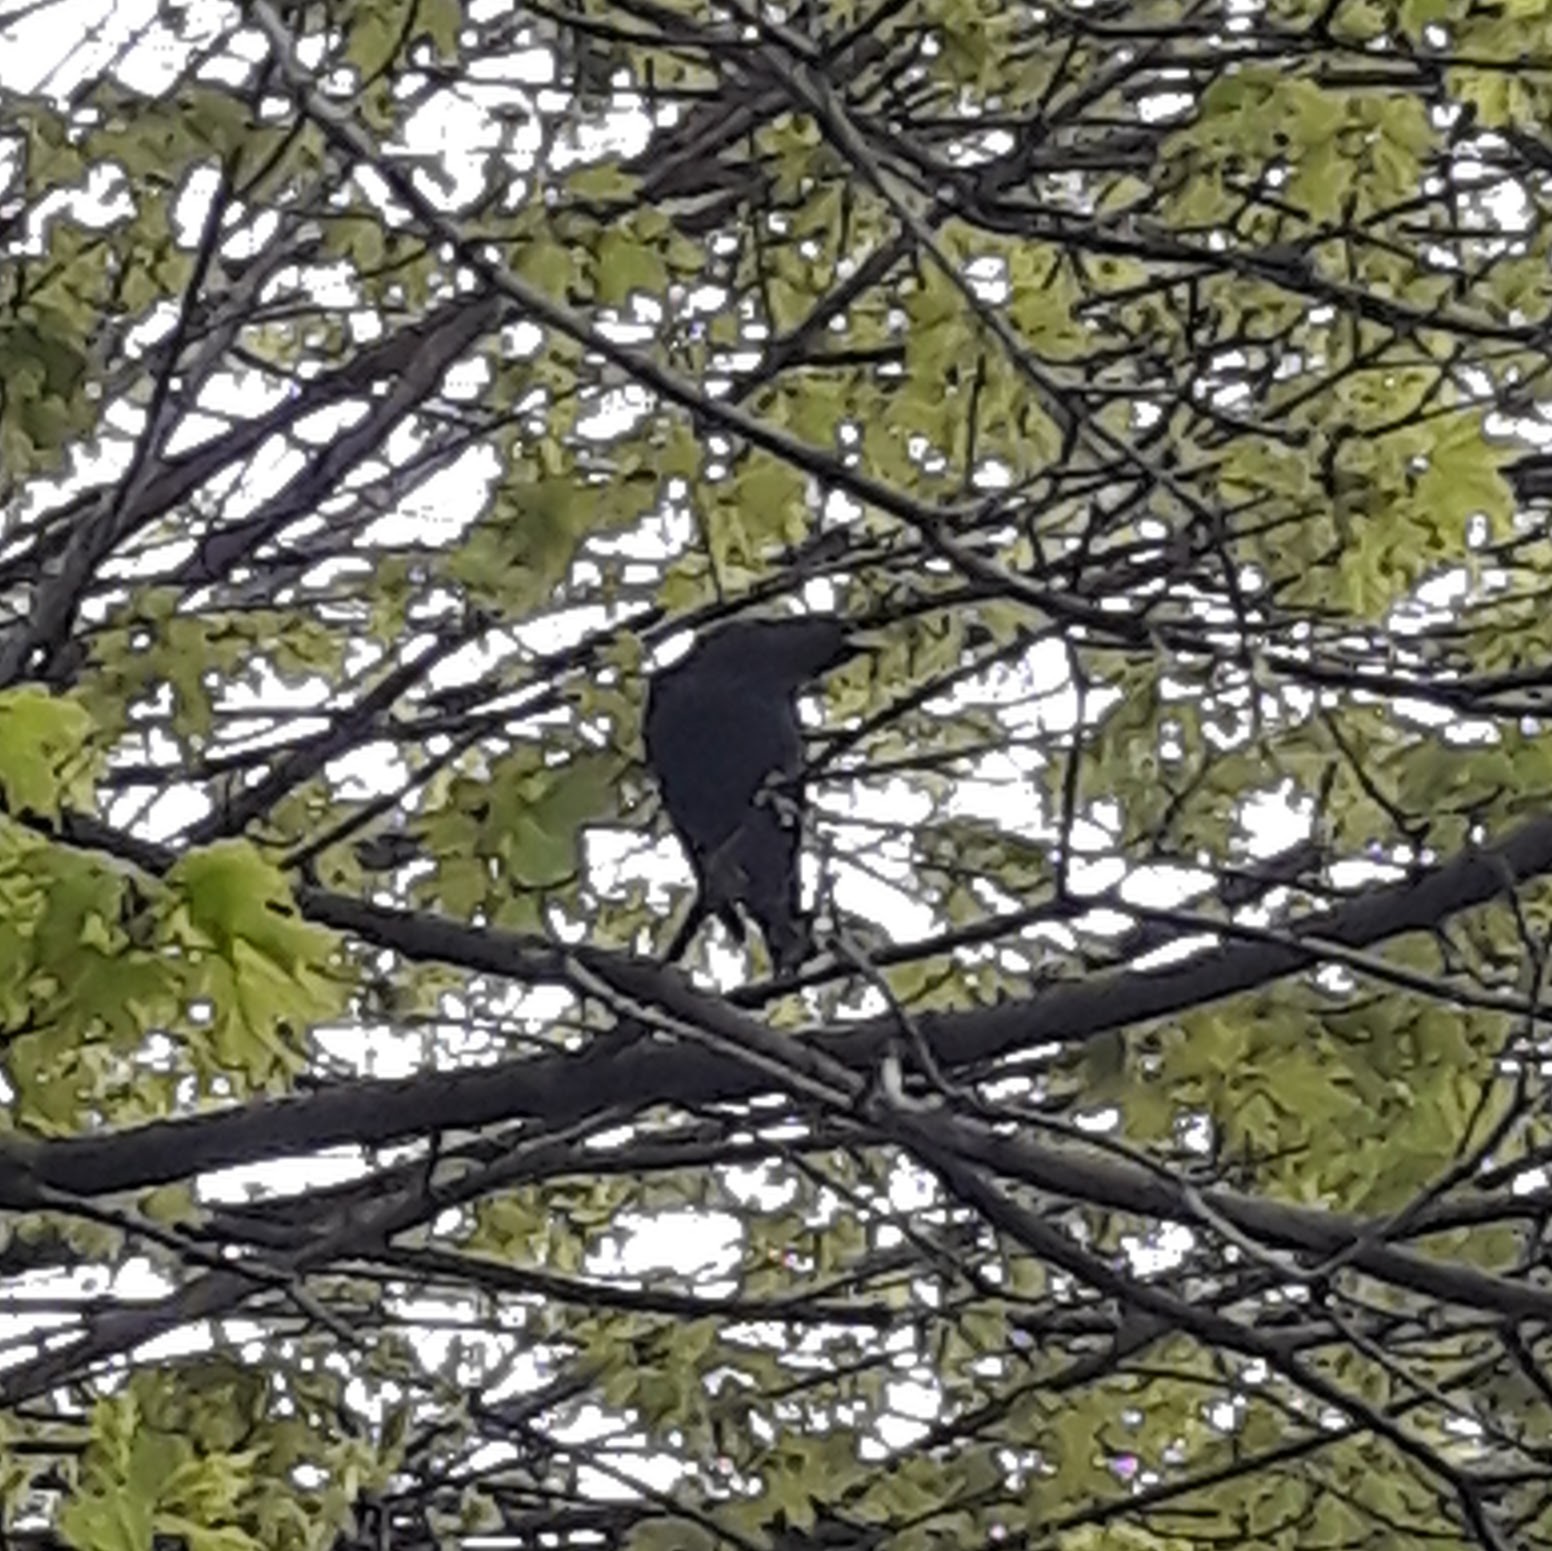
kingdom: Animalia
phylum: Chordata
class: Aves
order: Passeriformes
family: Sturnidae
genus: Sturnus
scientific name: Sturnus vulgaris
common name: Common starling
